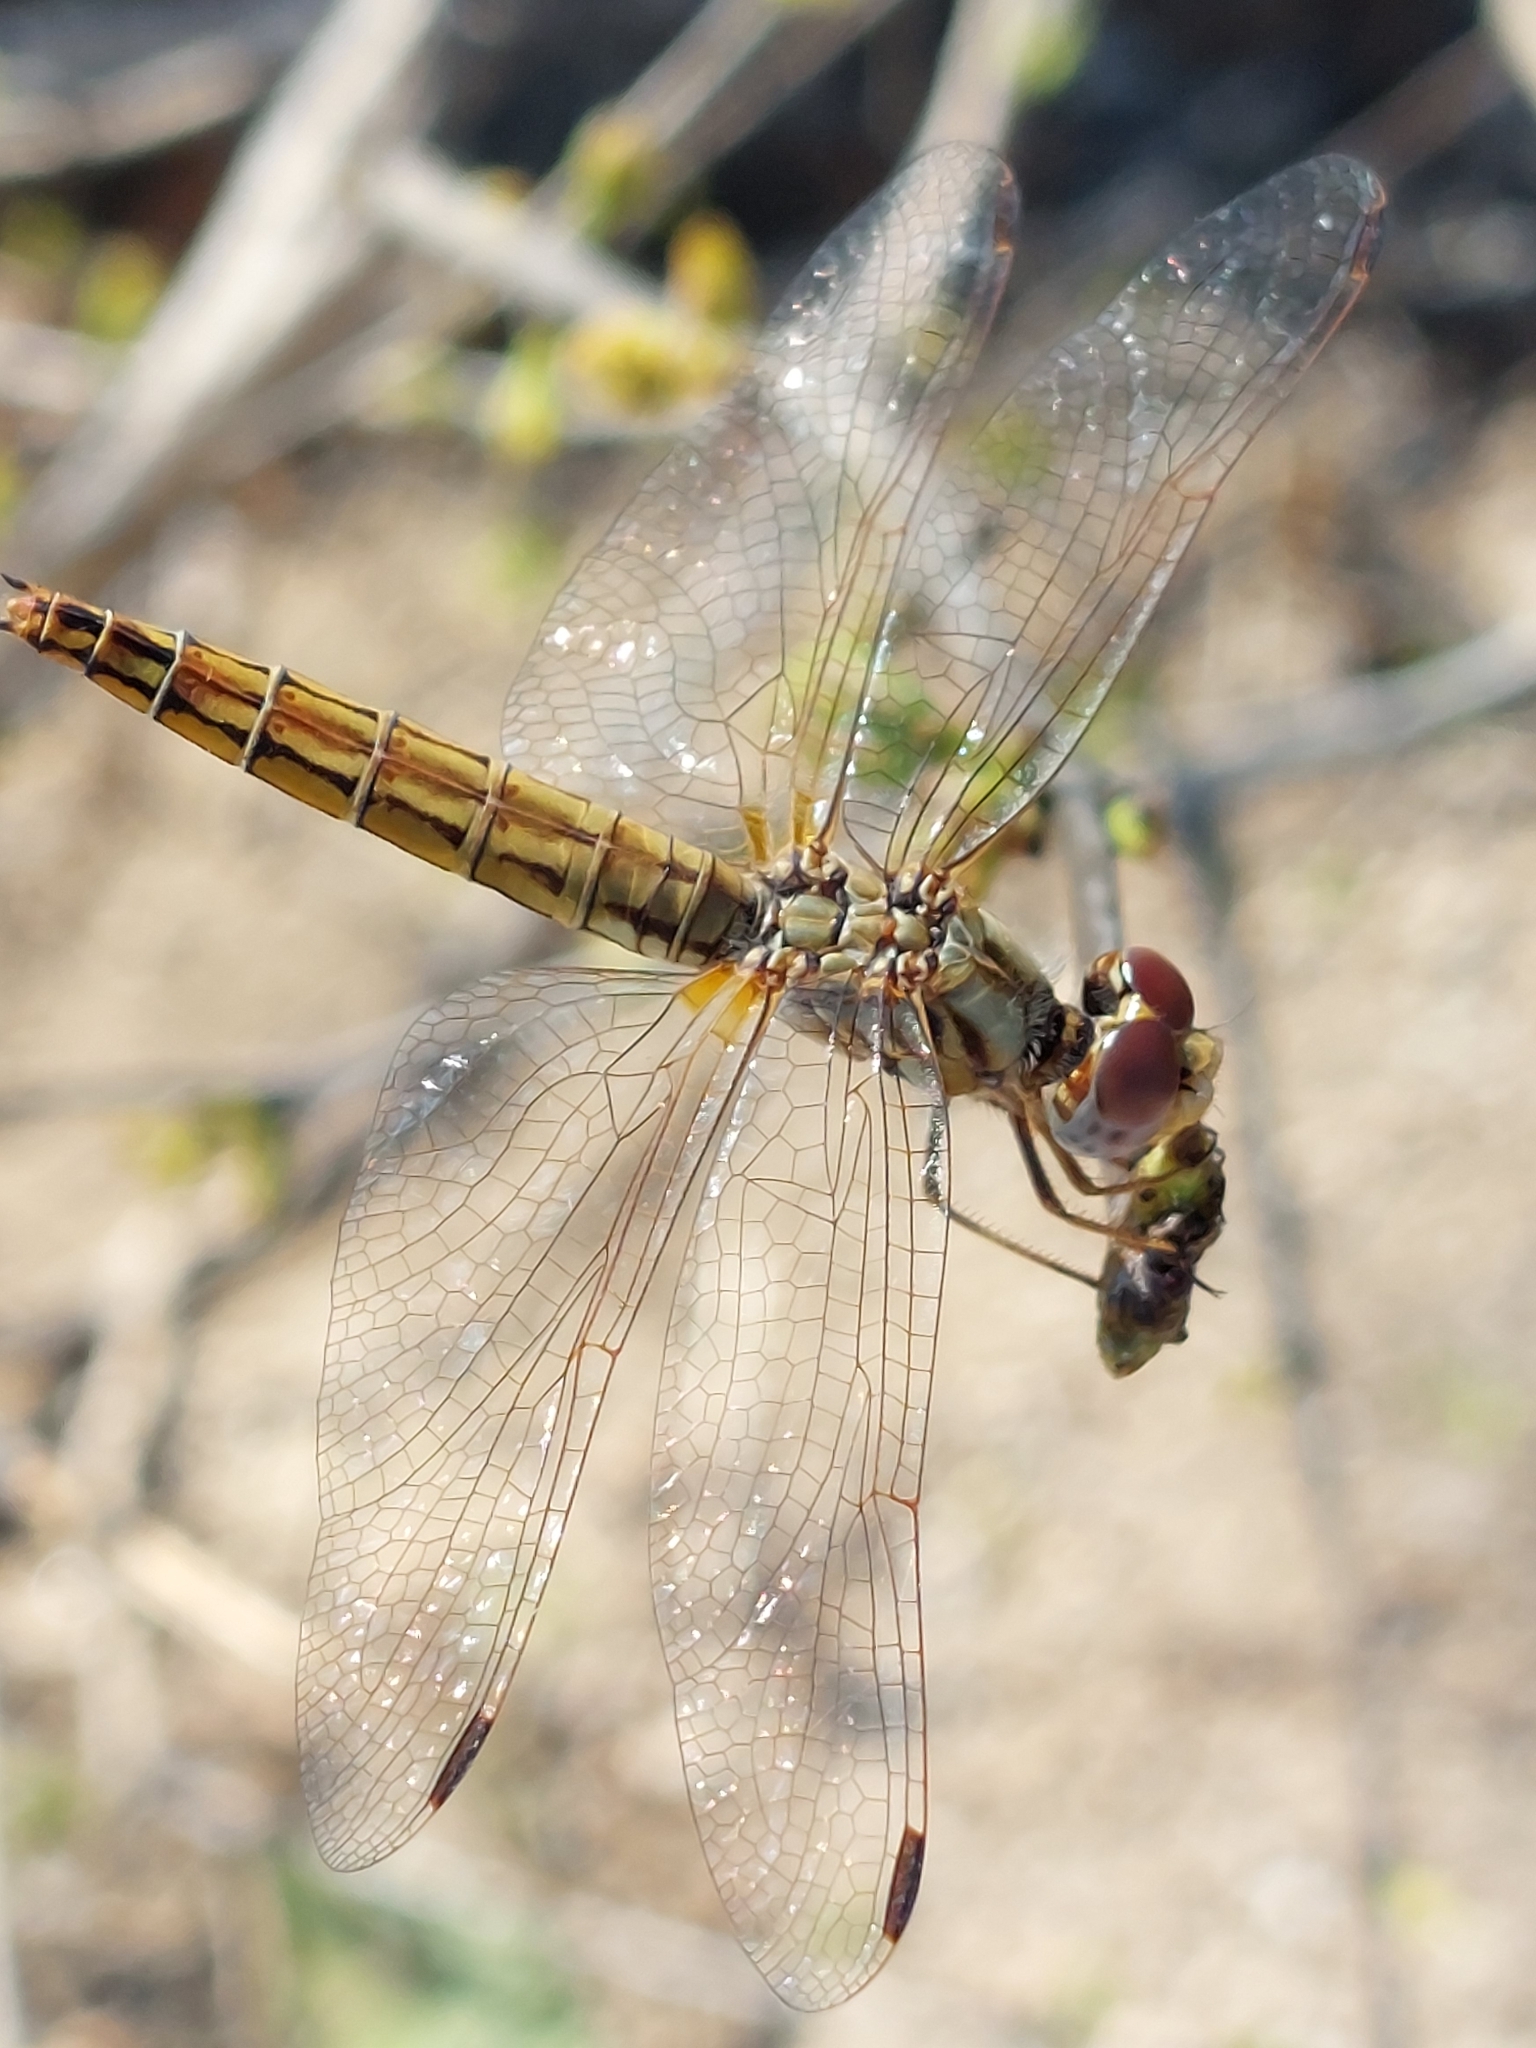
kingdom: Animalia
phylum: Arthropoda
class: Insecta
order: Odonata
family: Libellulidae
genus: Trithemis
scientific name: Trithemis kirbyi
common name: Kirby's dropwing
